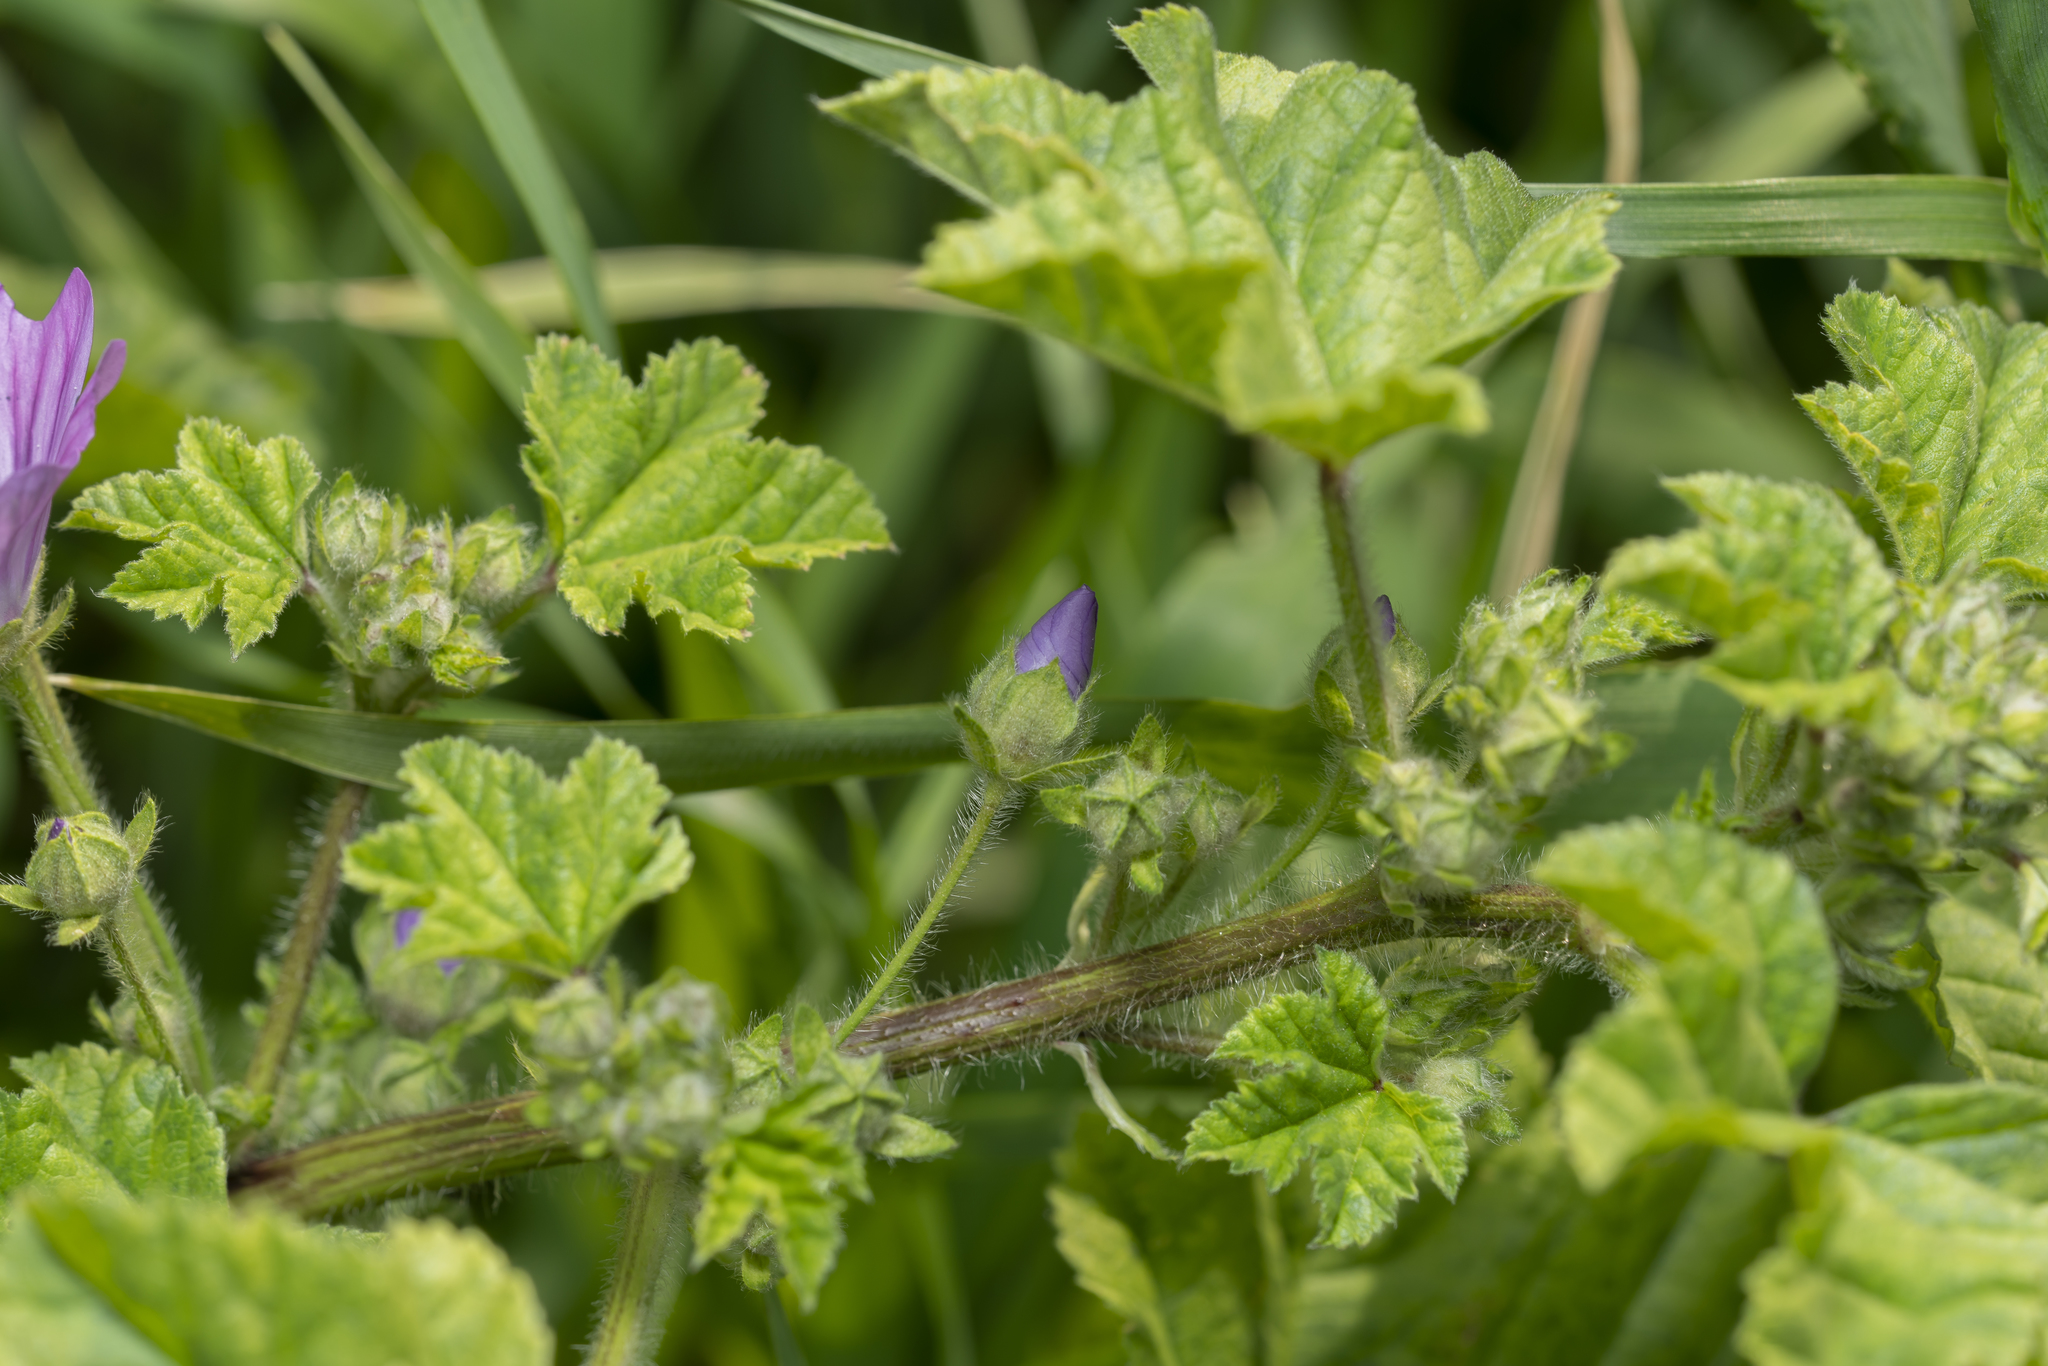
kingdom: Plantae
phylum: Tracheophyta
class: Magnoliopsida
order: Malvales
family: Malvaceae
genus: Malva
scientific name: Malva sylvestris
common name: Common mallow
